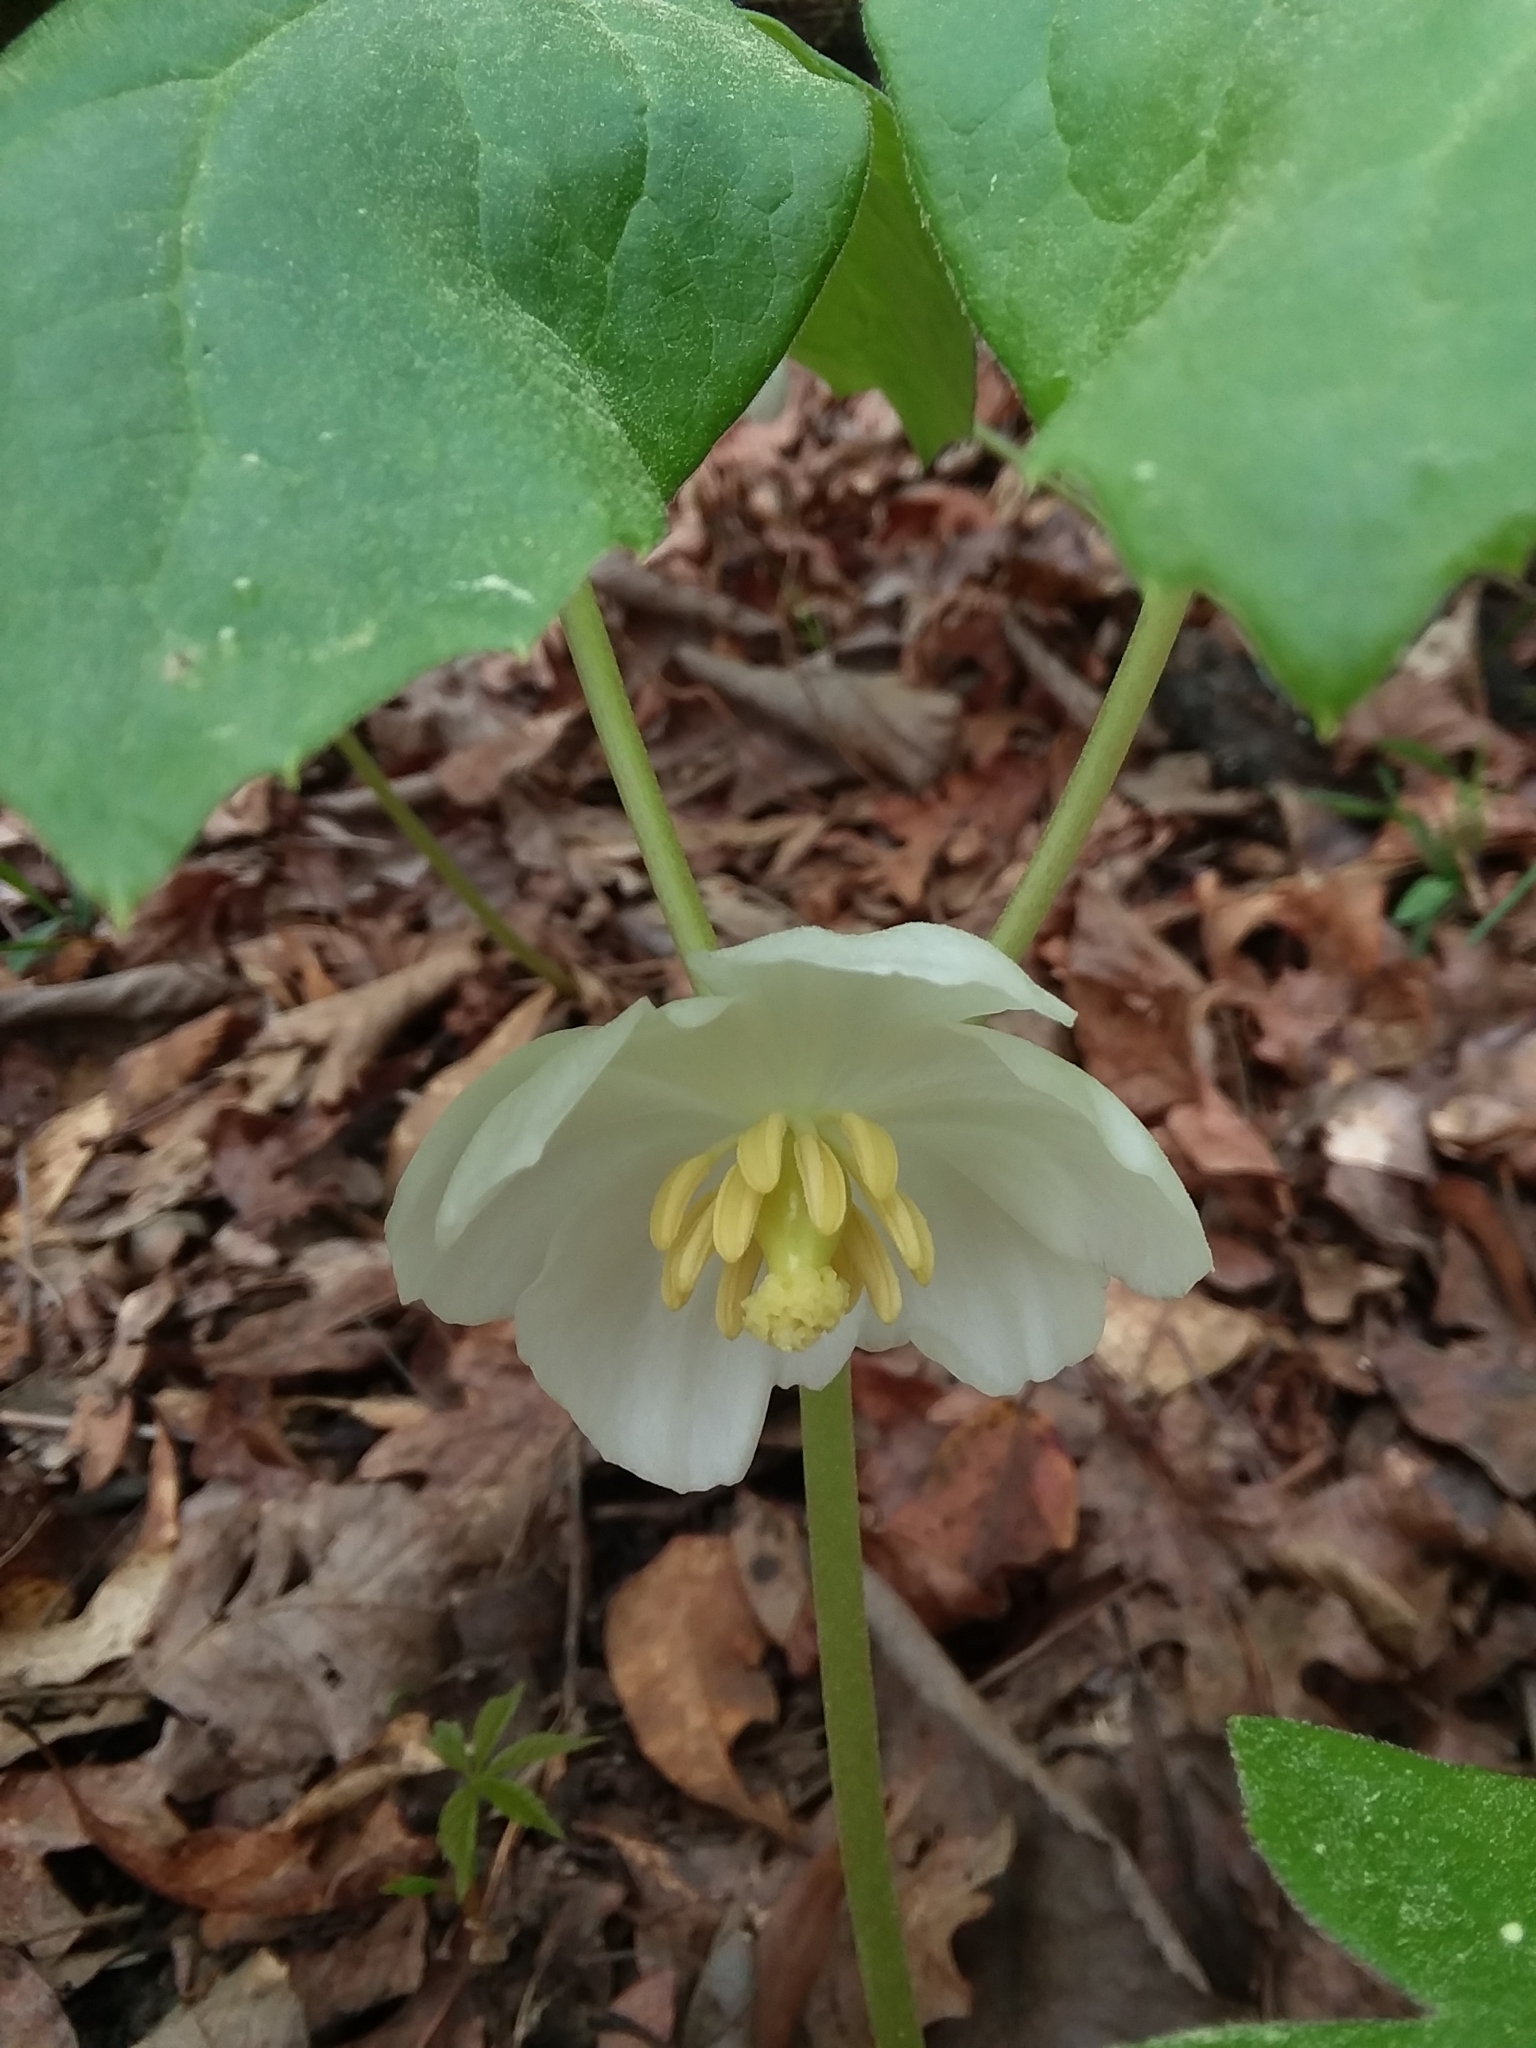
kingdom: Plantae
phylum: Tracheophyta
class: Magnoliopsida
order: Ranunculales
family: Berberidaceae
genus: Podophyllum
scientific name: Podophyllum peltatum
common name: Wild mandrake
